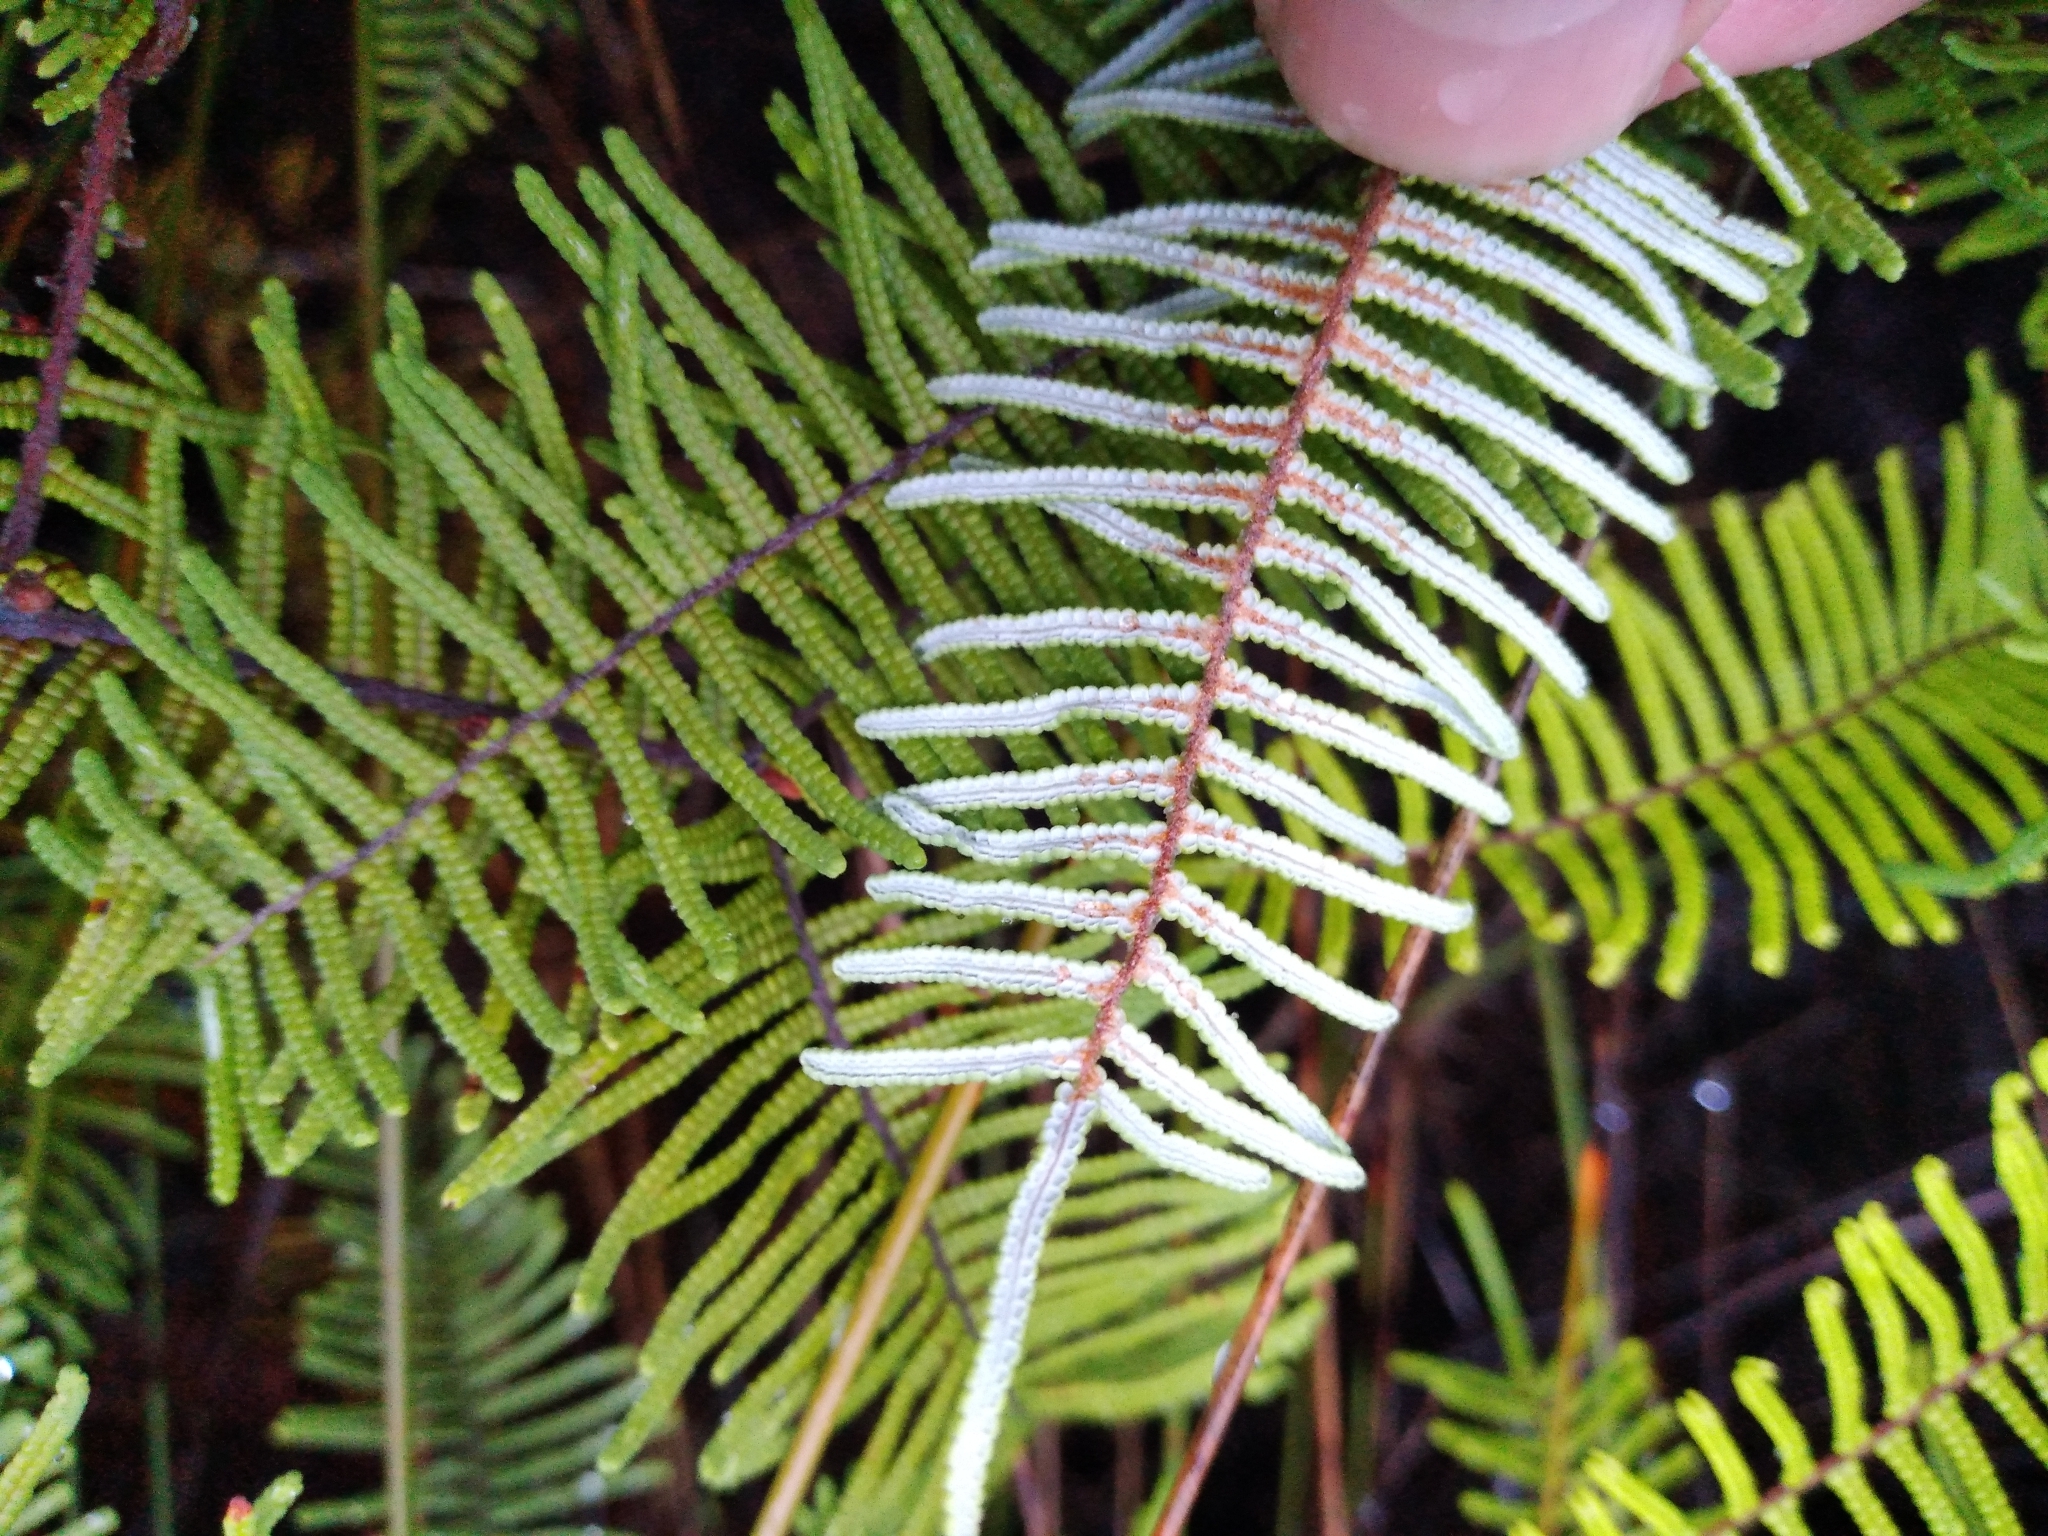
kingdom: Plantae
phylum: Tracheophyta
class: Polypodiopsida
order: Gleicheniales
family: Gleicheniaceae
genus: Gleichenia
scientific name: Gleichenia dicarpa
